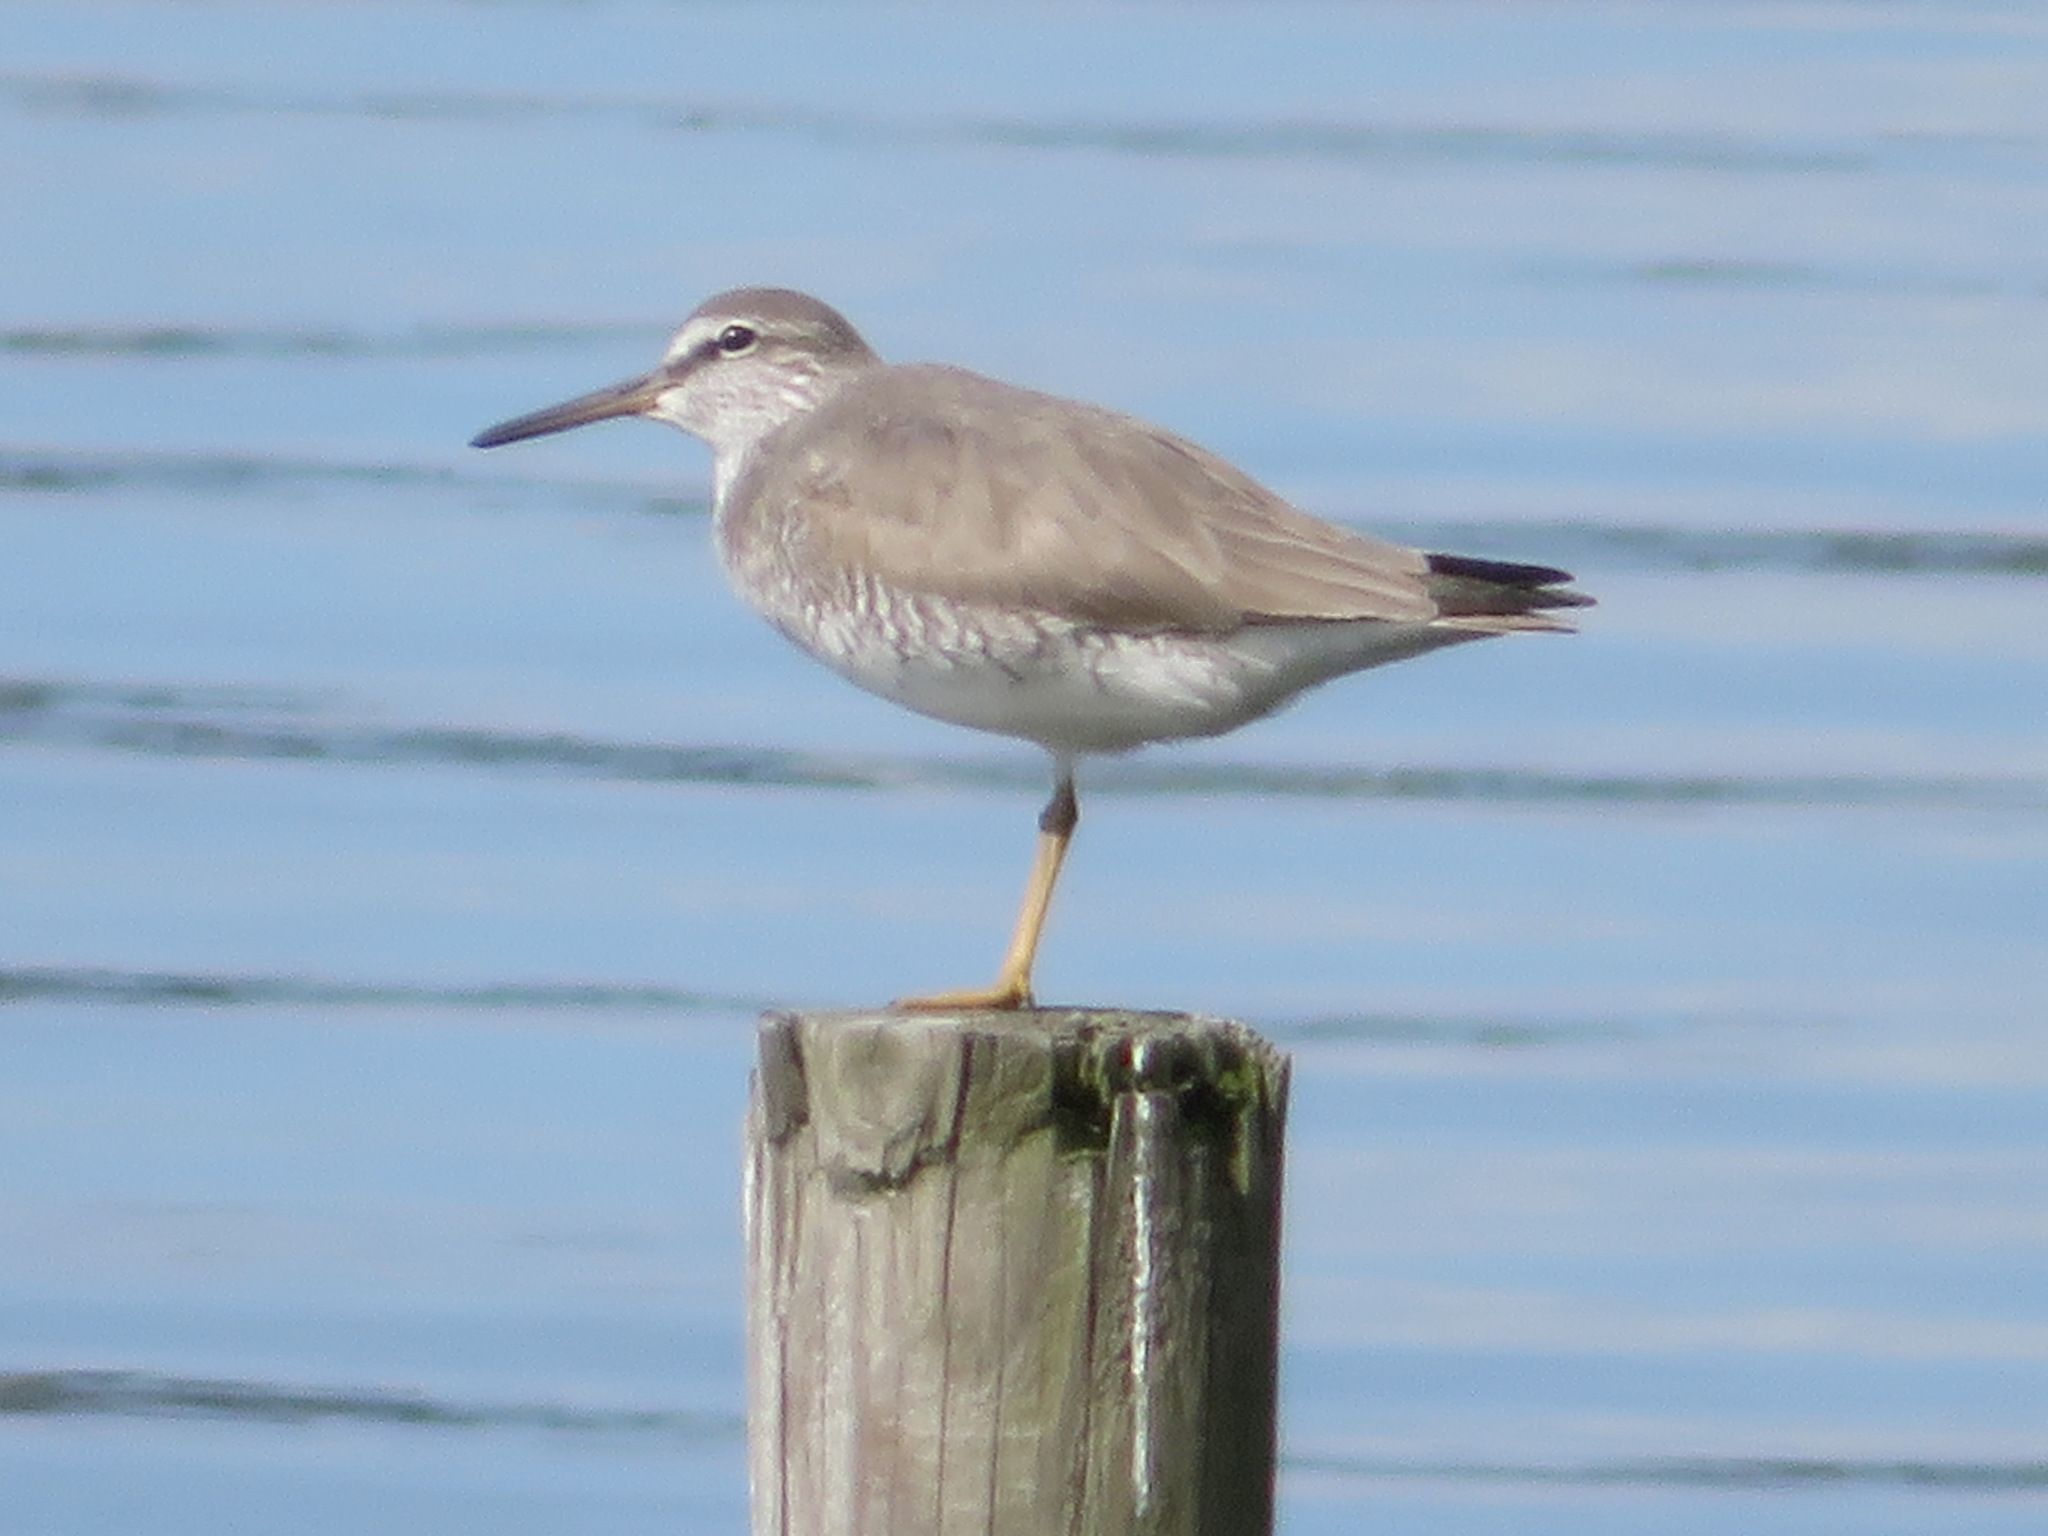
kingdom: Animalia
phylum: Chordata
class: Aves
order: Charadriiformes
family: Scolopacidae
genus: Tringa
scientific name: Tringa brevipes
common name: Grey-tailed tattler
